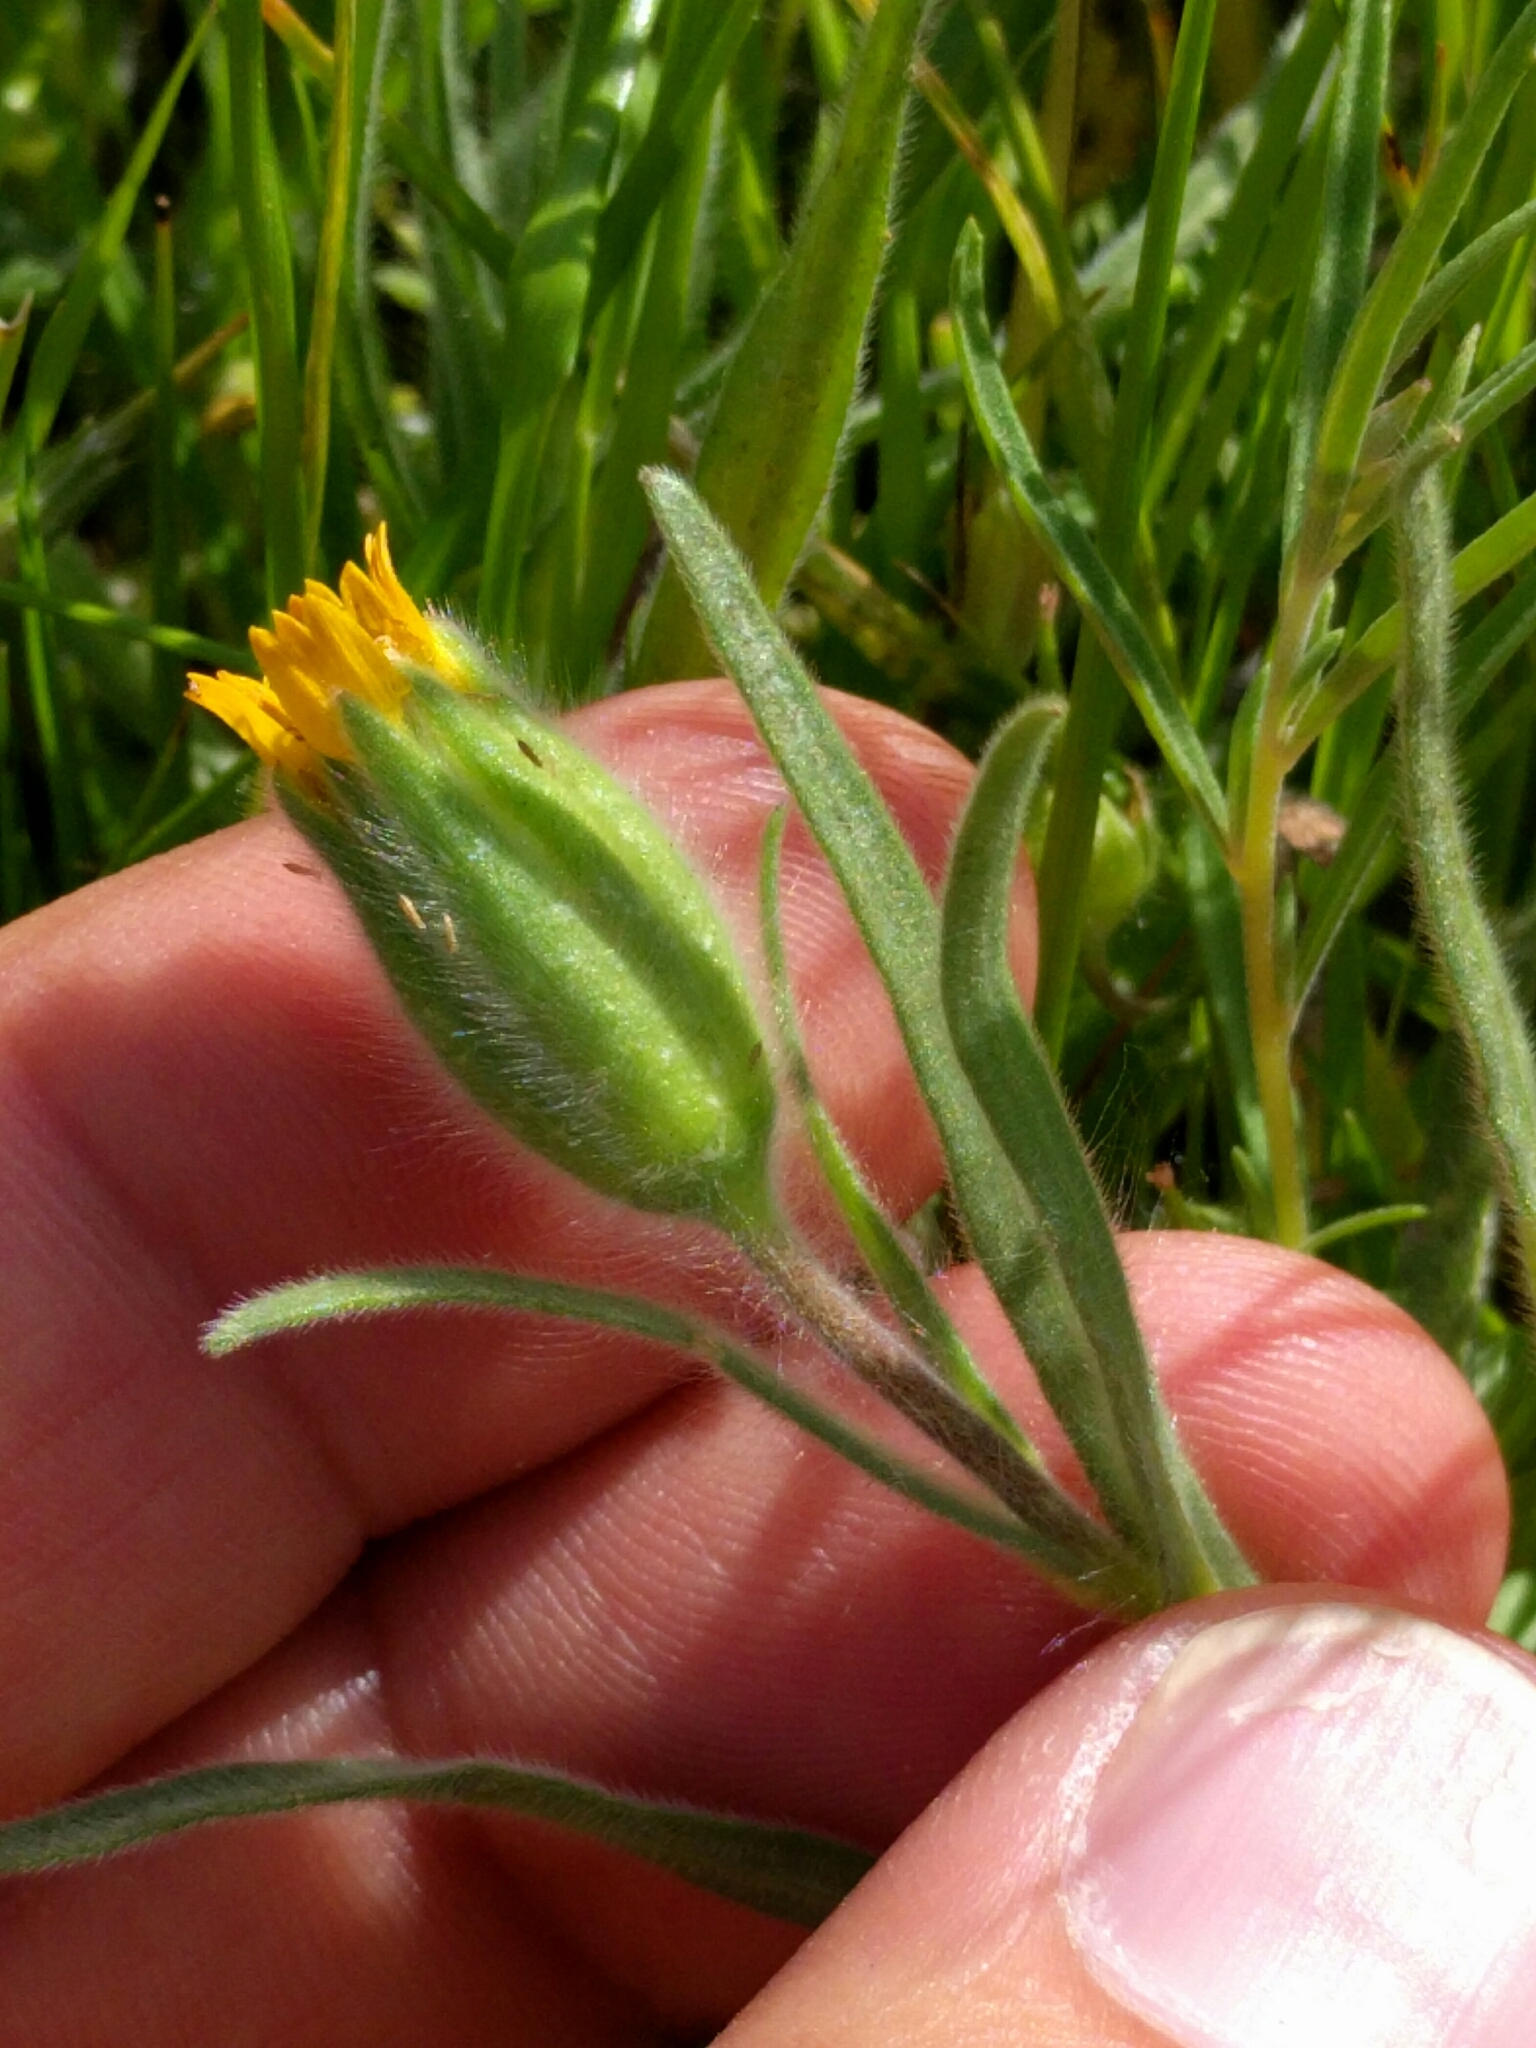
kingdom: Plantae
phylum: Tracheophyta
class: Magnoliopsida
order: Asterales
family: Asteraceae
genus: Achyrachaena
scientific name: Achyrachaena mollis
